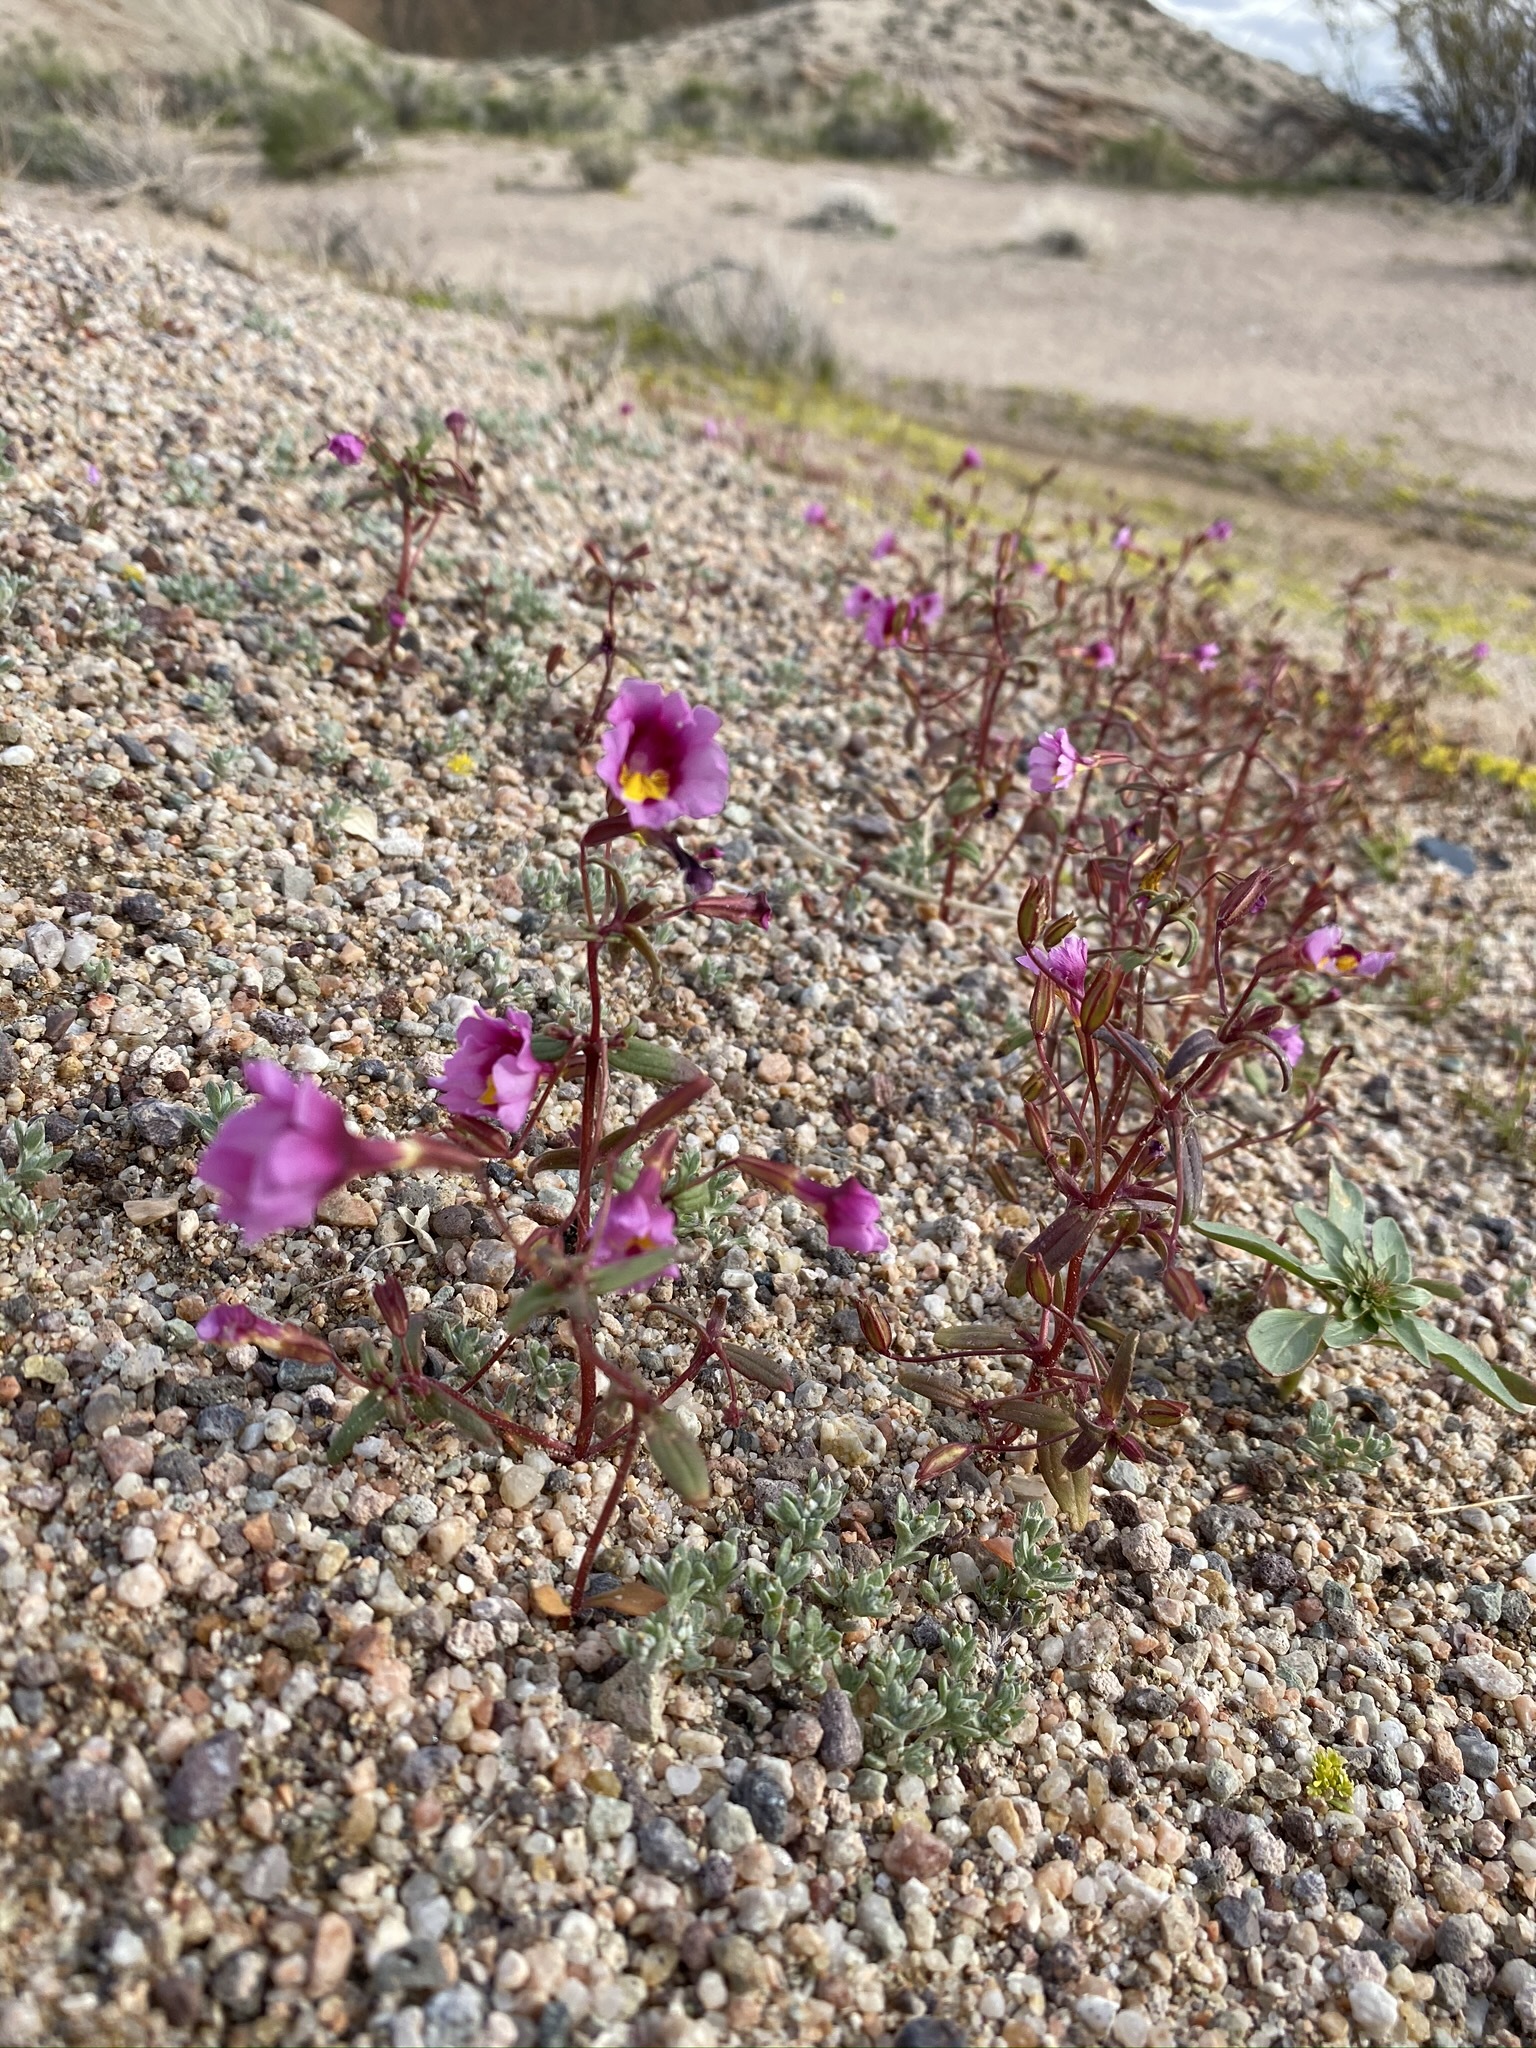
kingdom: Plantae
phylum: Tracheophyta
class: Magnoliopsida
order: Lamiales
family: Phrymaceae
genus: Erythranthe
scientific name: Erythranthe rhodopetra
